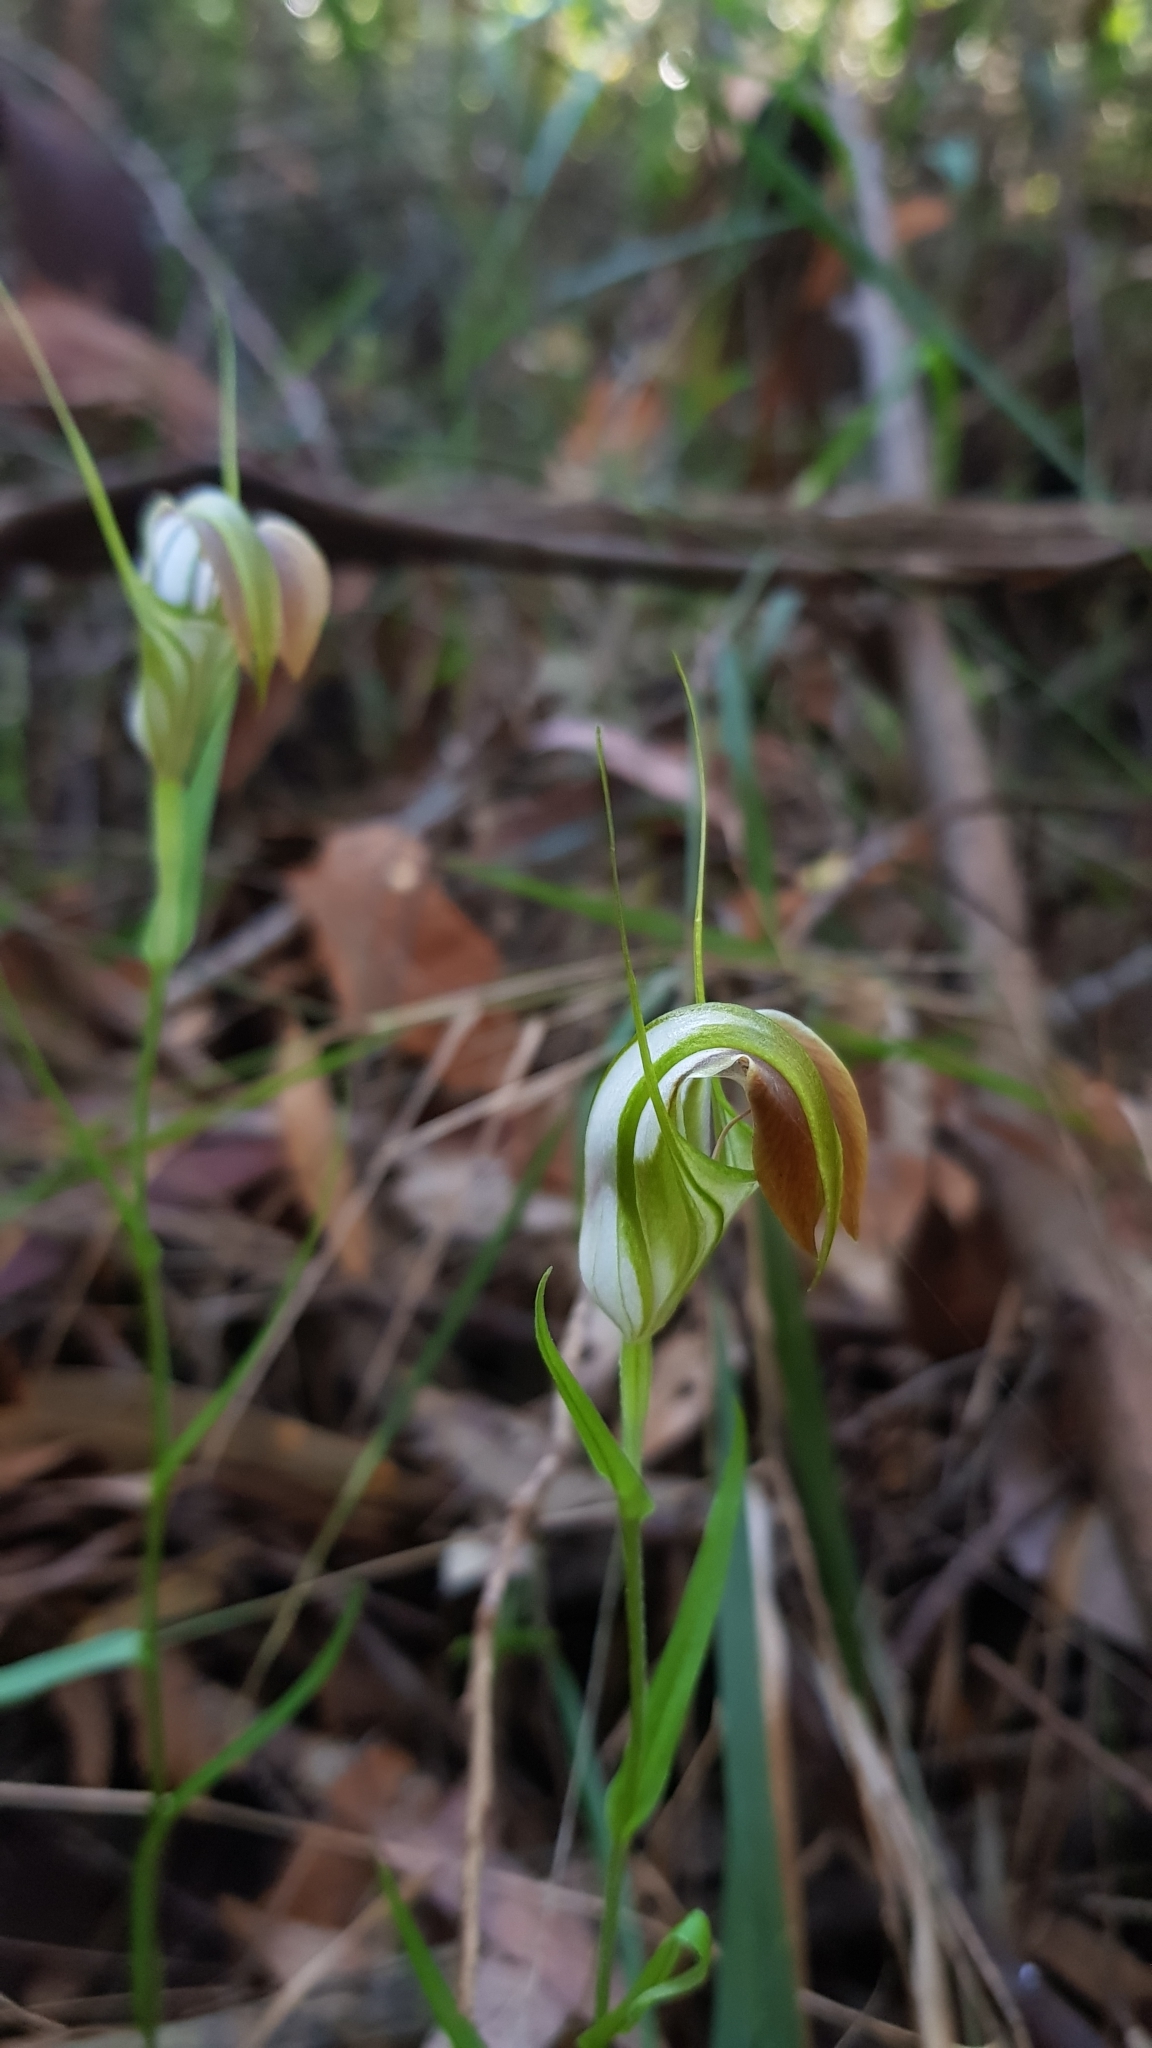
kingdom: Plantae
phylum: Tracheophyta
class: Liliopsida
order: Asparagales
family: Orchidaceae
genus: Pterostylis
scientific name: Pterostylis grandiflora
